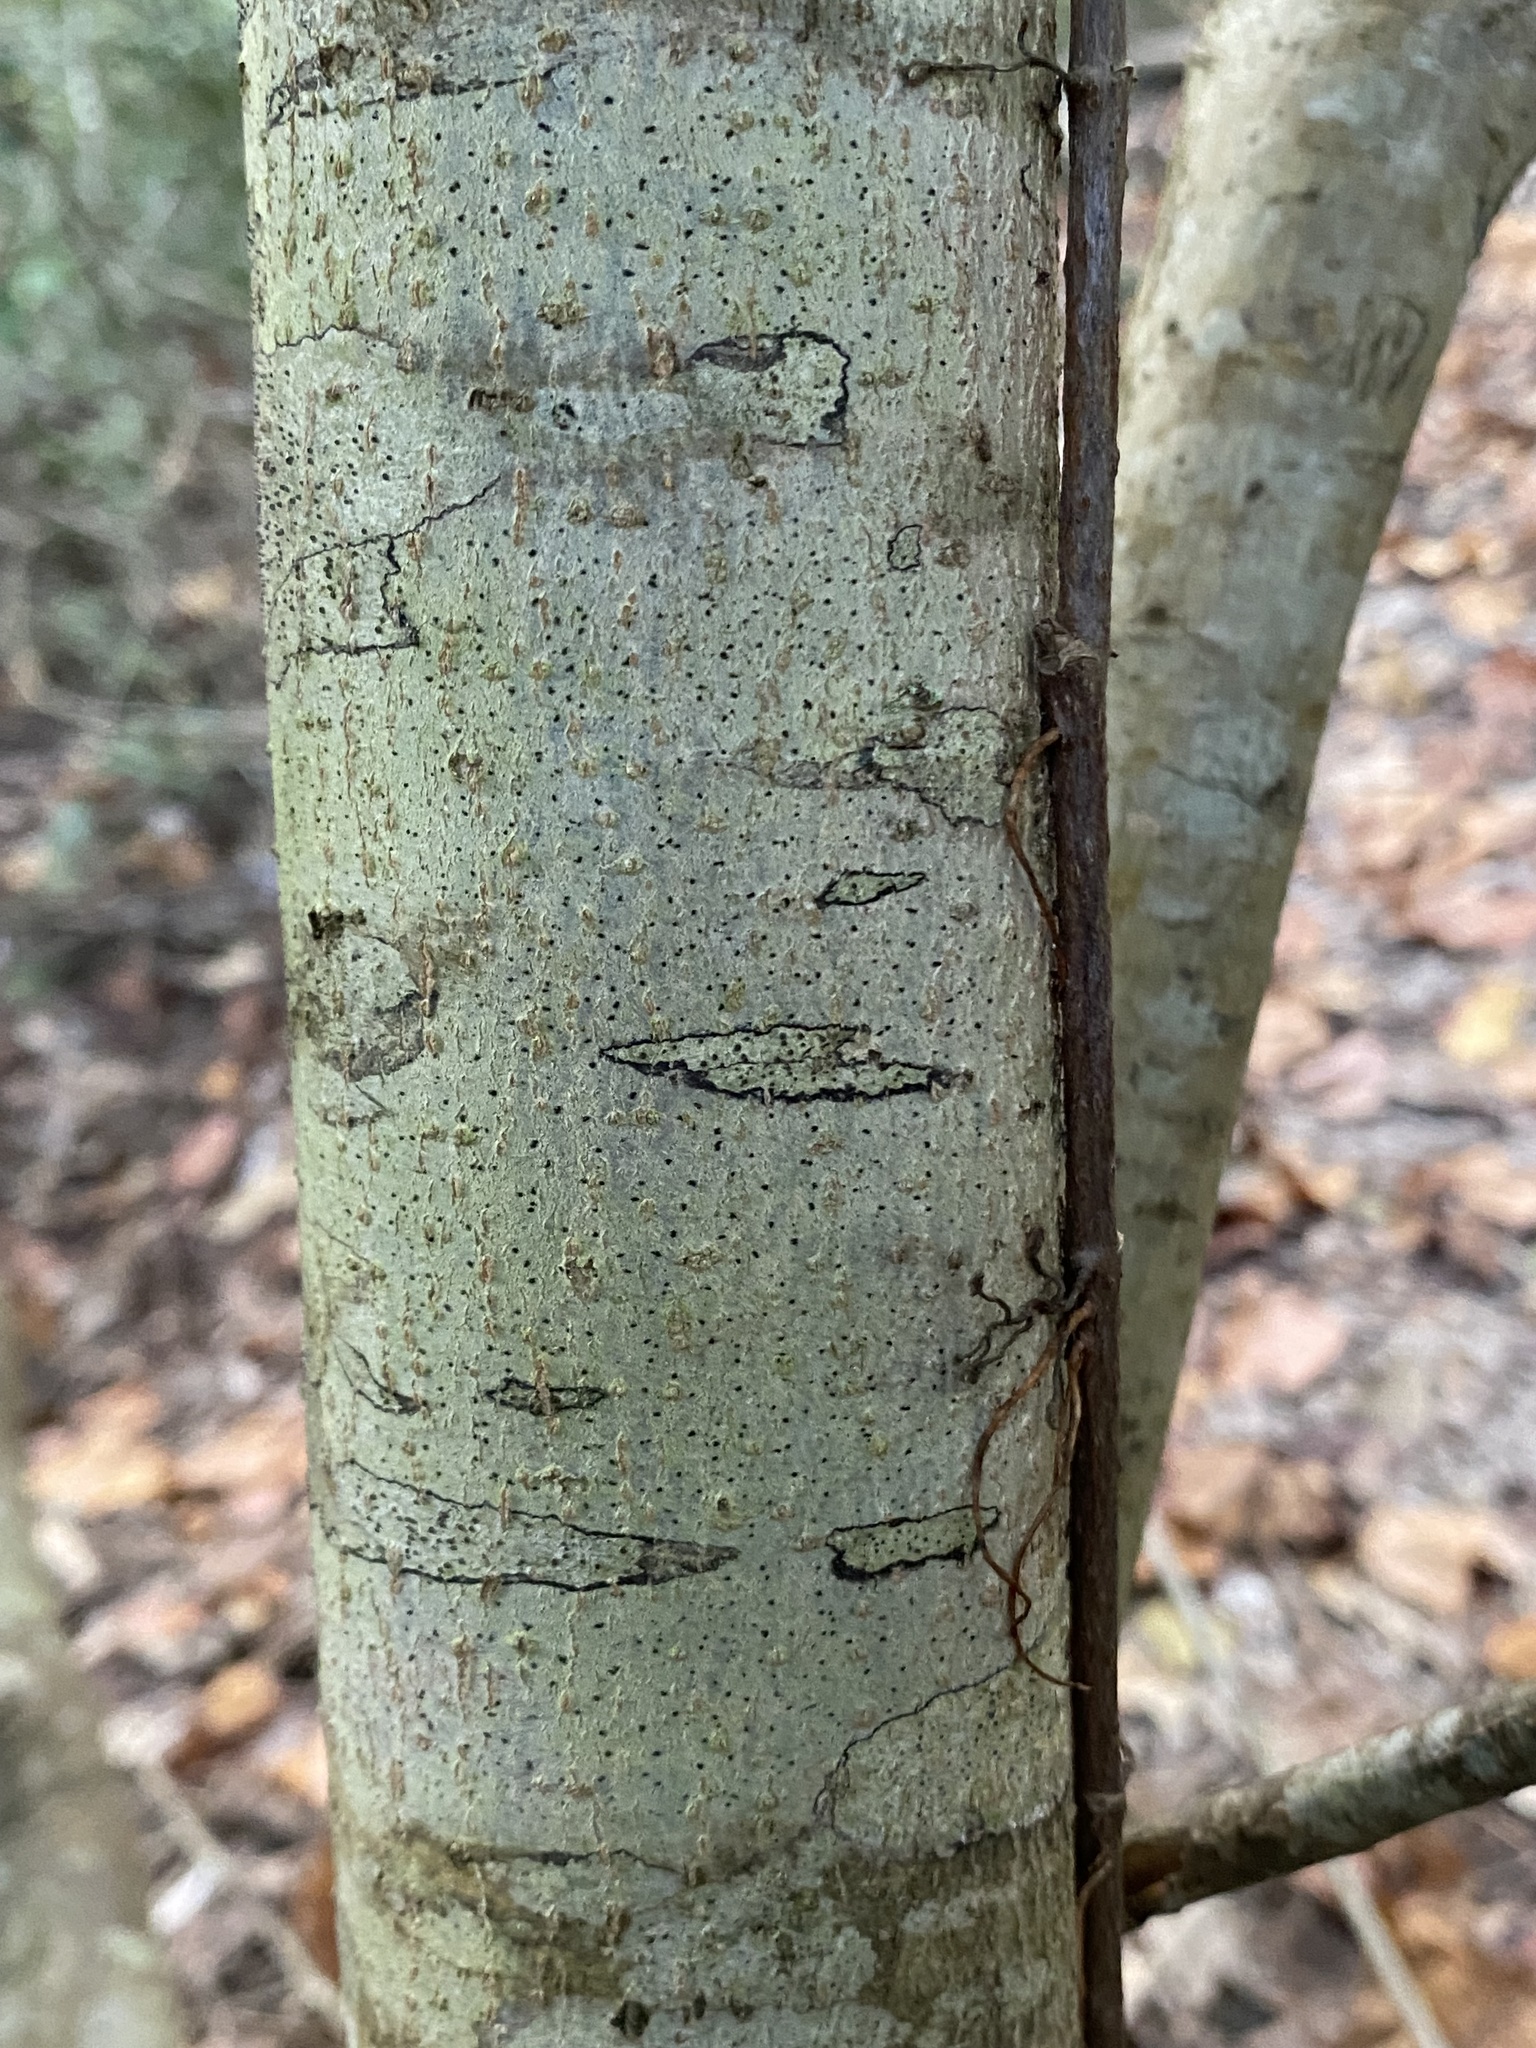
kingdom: Plantae
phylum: Tracheophyta
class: Magnoliopsida
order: Aquifoliales
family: Aquifoliaceae
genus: Ilex
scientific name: Ilex opaca
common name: American holly
